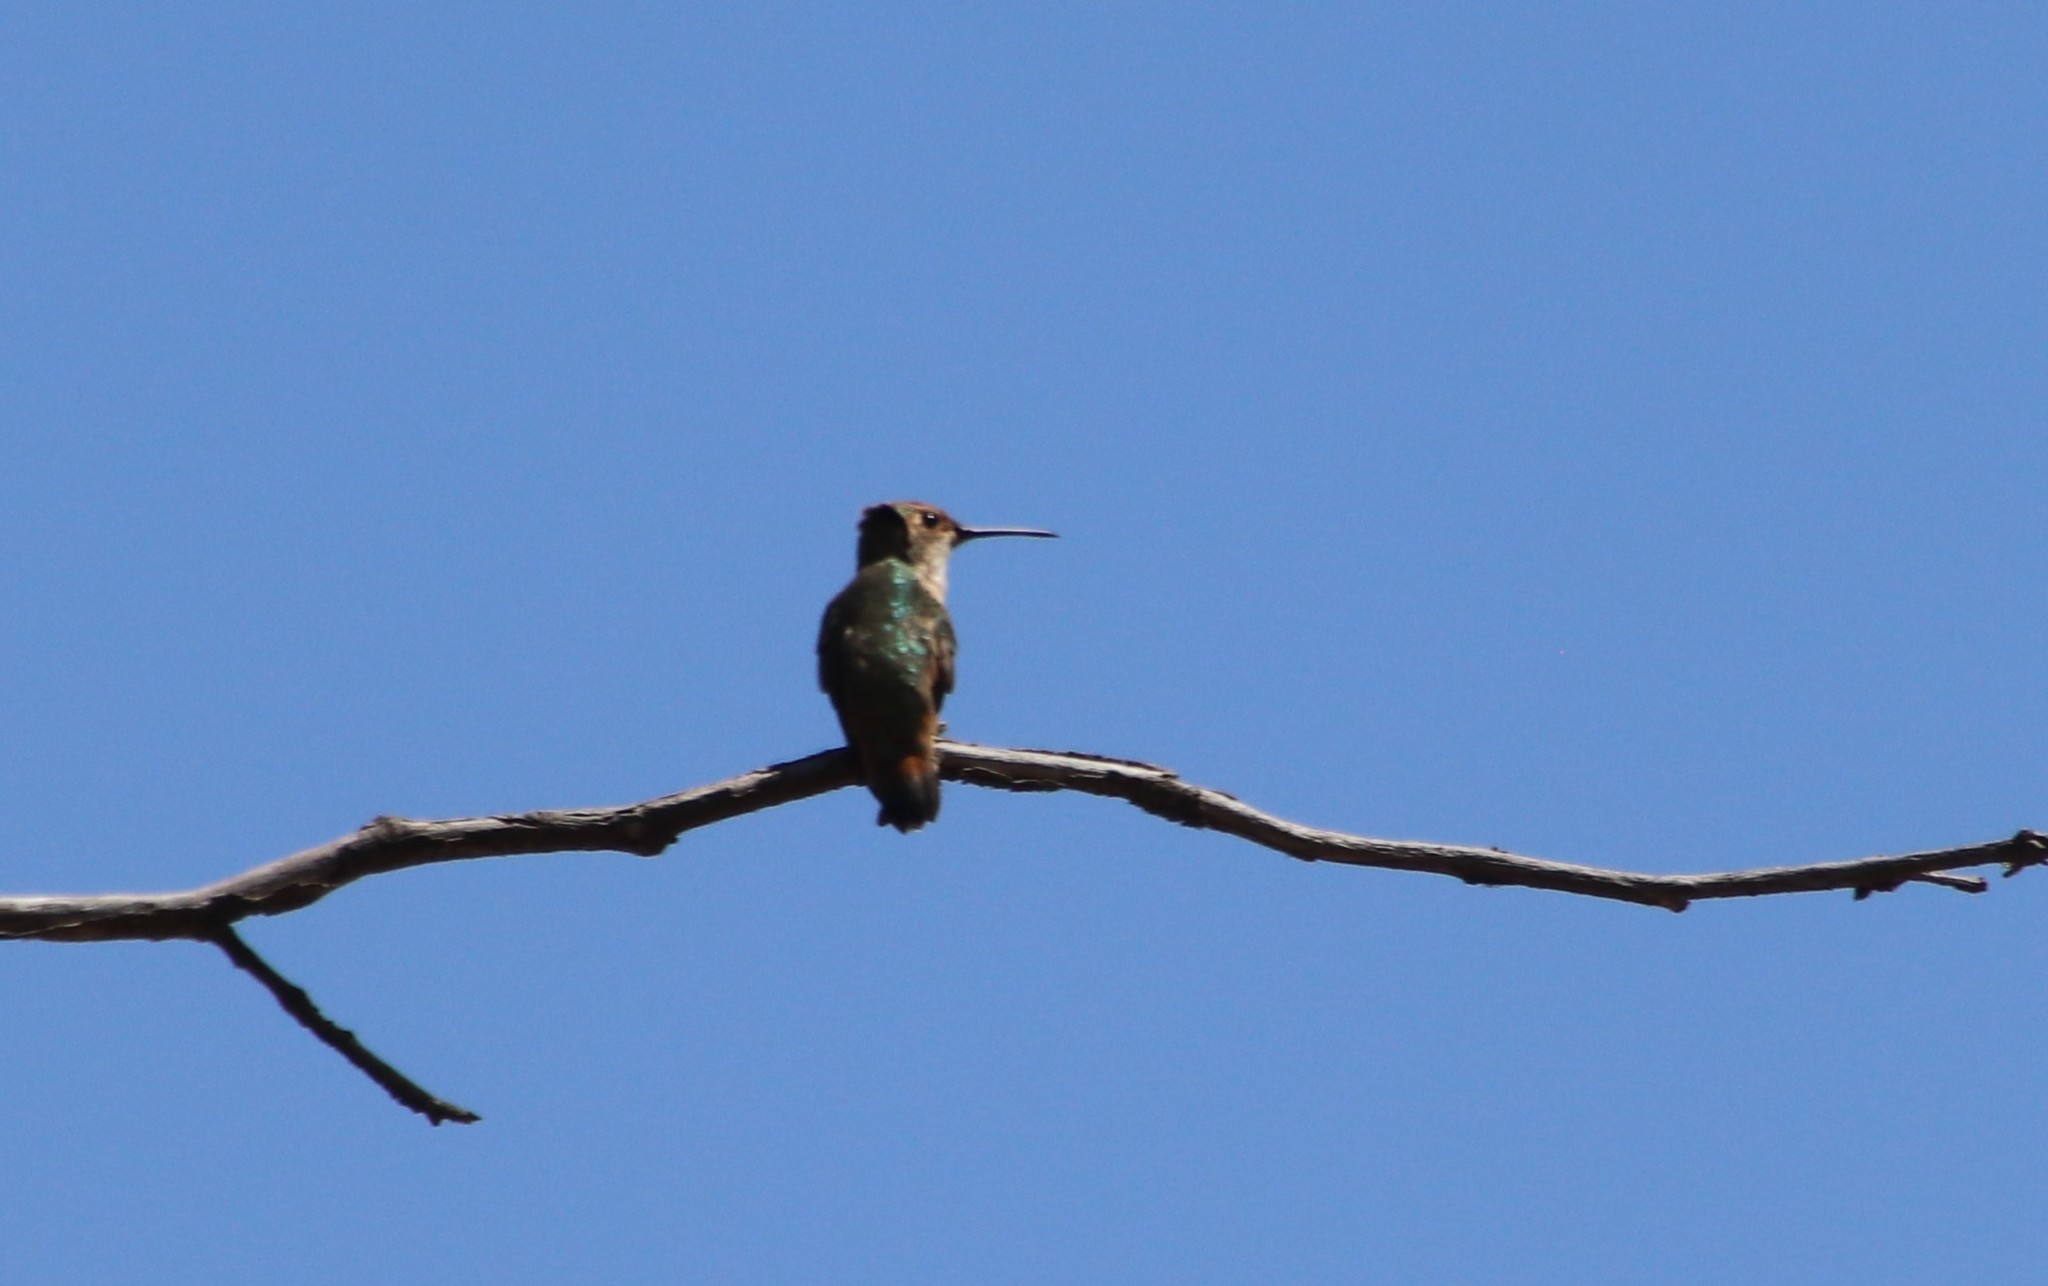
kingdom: Animalia
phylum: Chordata
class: Aves
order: Apodiformes
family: Trochilidae
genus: Selasphorus
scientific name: Selasphorus sasin
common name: Allen's hummingbird
